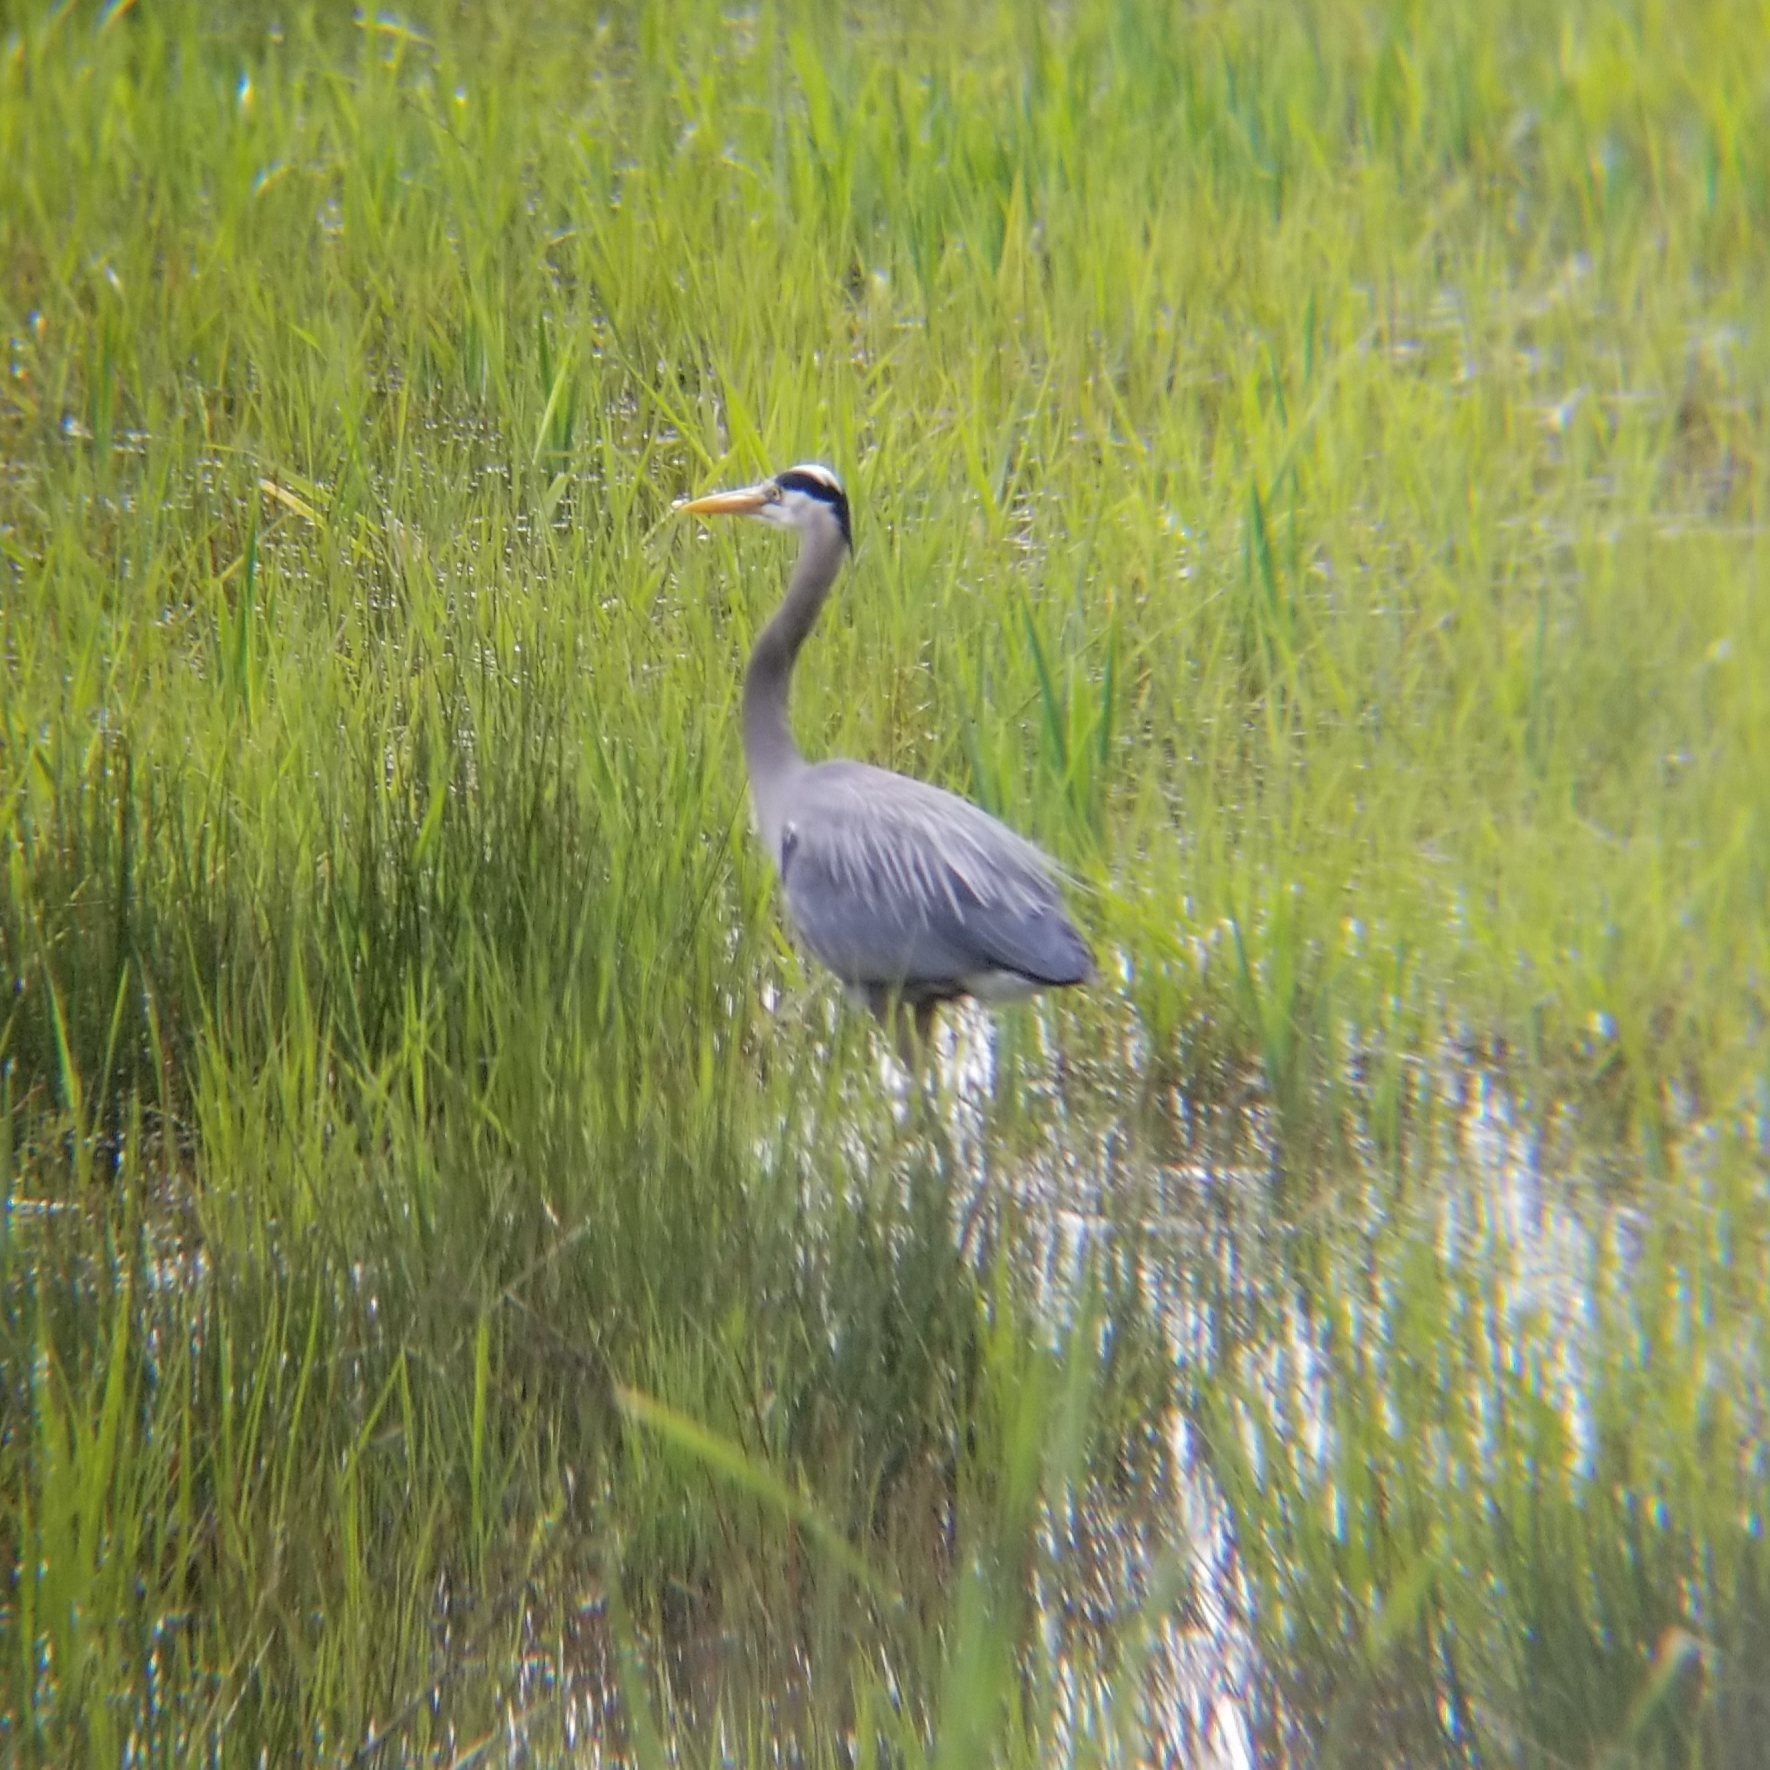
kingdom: Animalia
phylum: Chordata
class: Aves
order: Pelecaniformes
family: Ardeidae
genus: Ardea
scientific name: Ardea herodias
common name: Great blue heron
